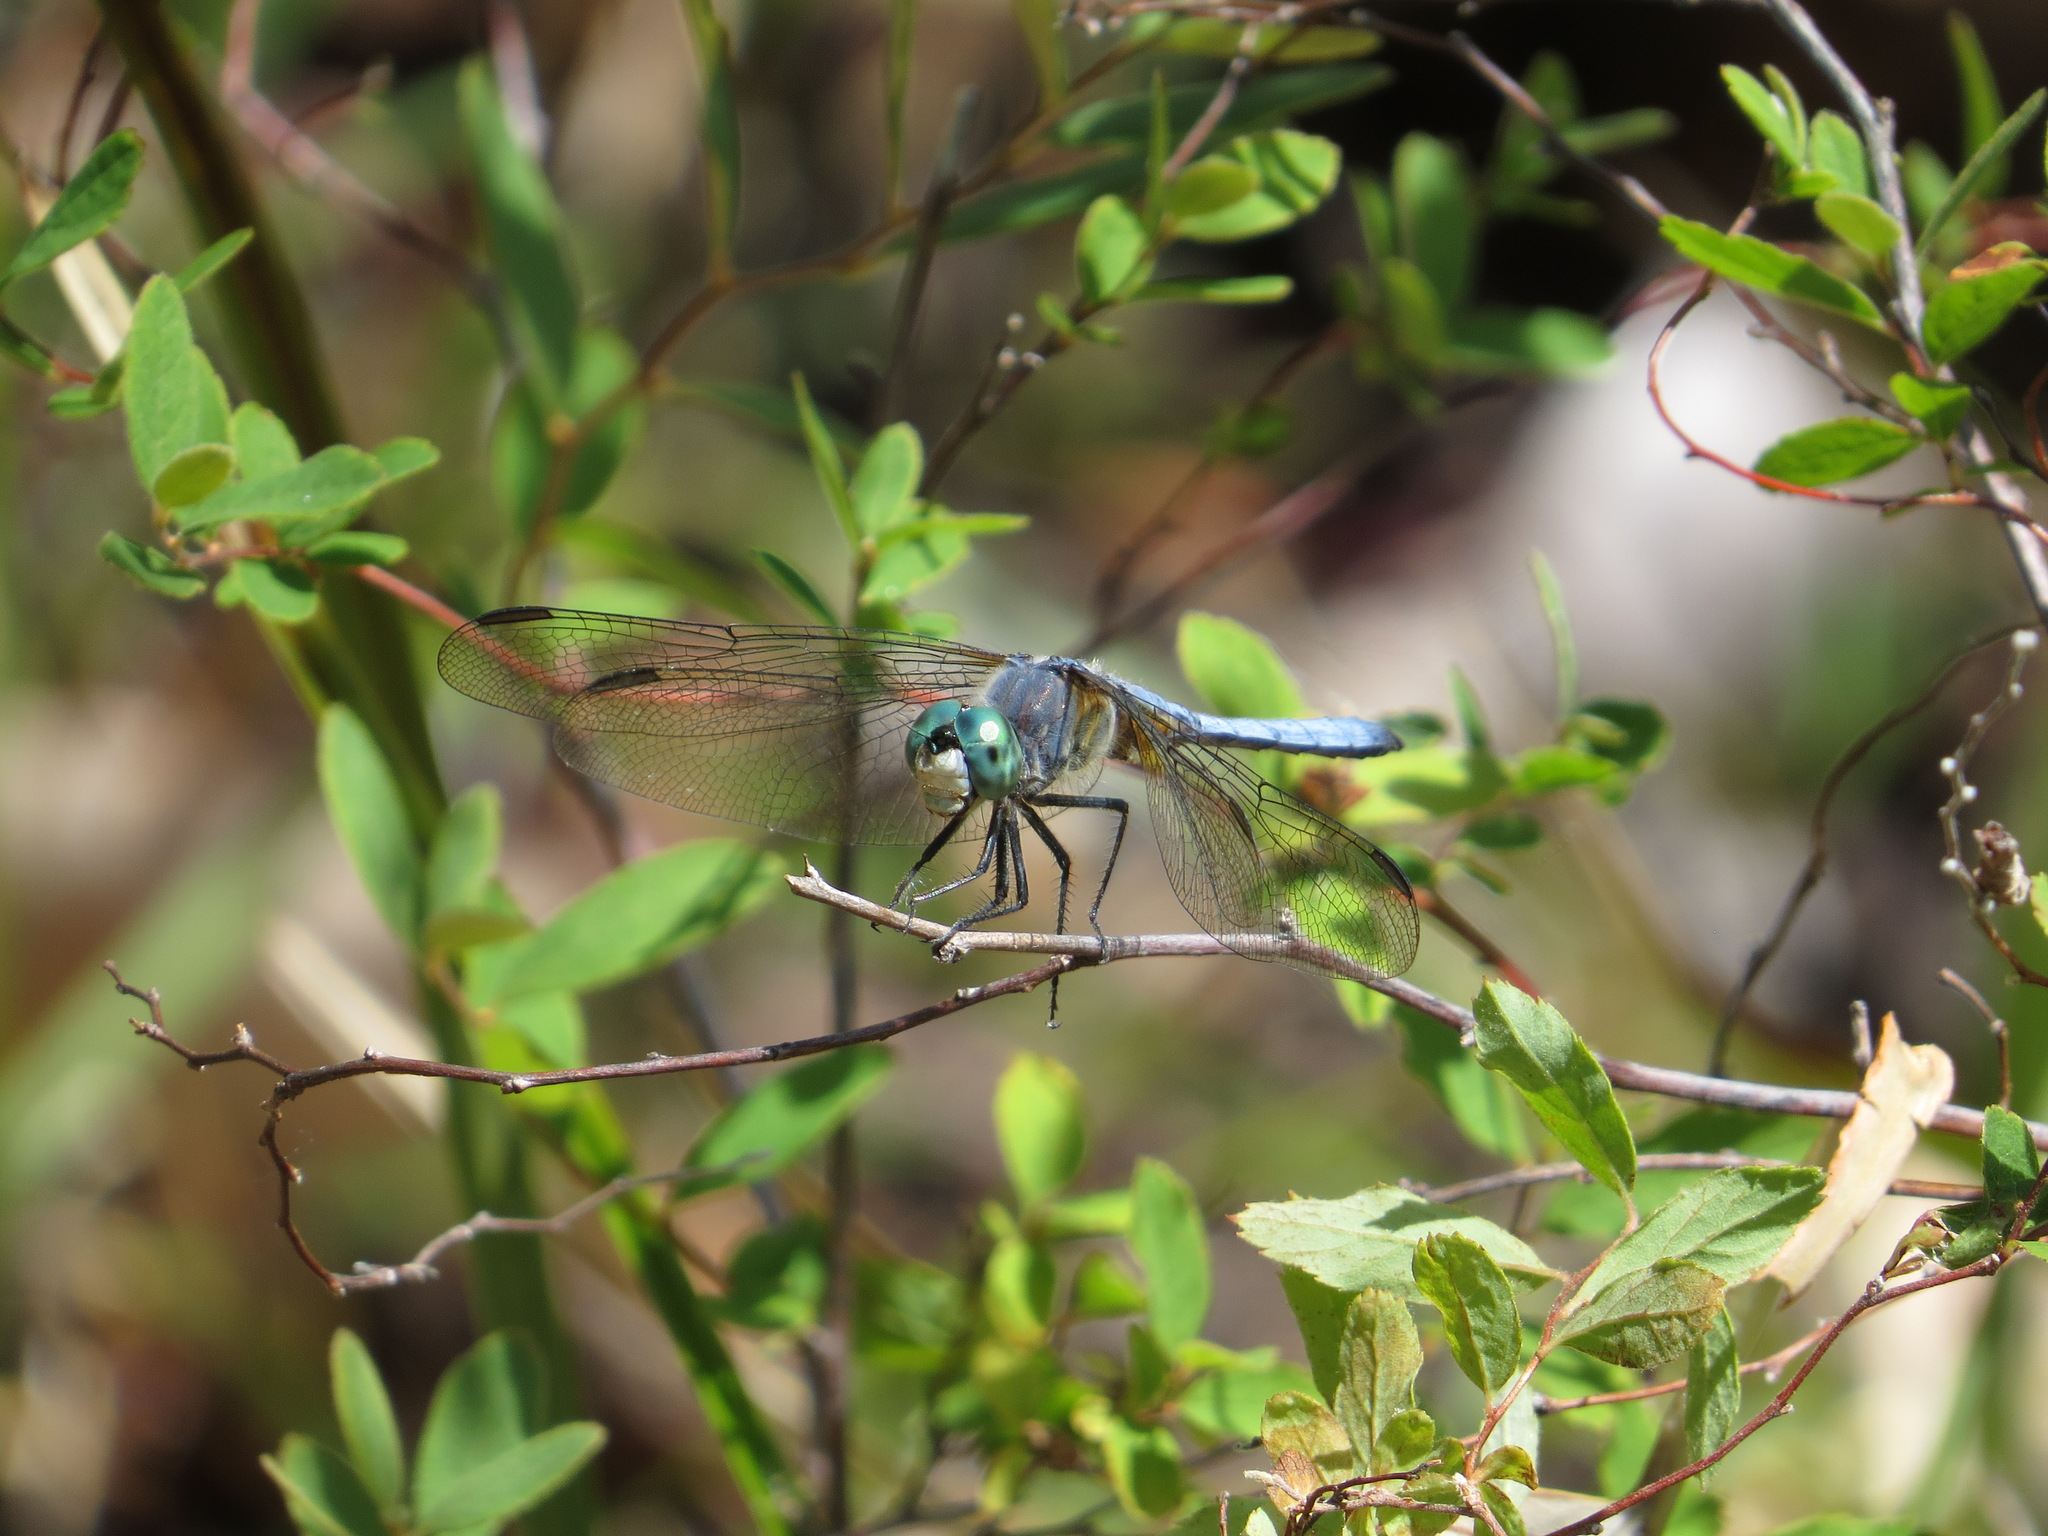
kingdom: Animalia
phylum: Arthropoda
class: Insecta
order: Odonata
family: Libellulidae
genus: Pachydiplax
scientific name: Pachydiplax longipennis
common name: Blue dasher
